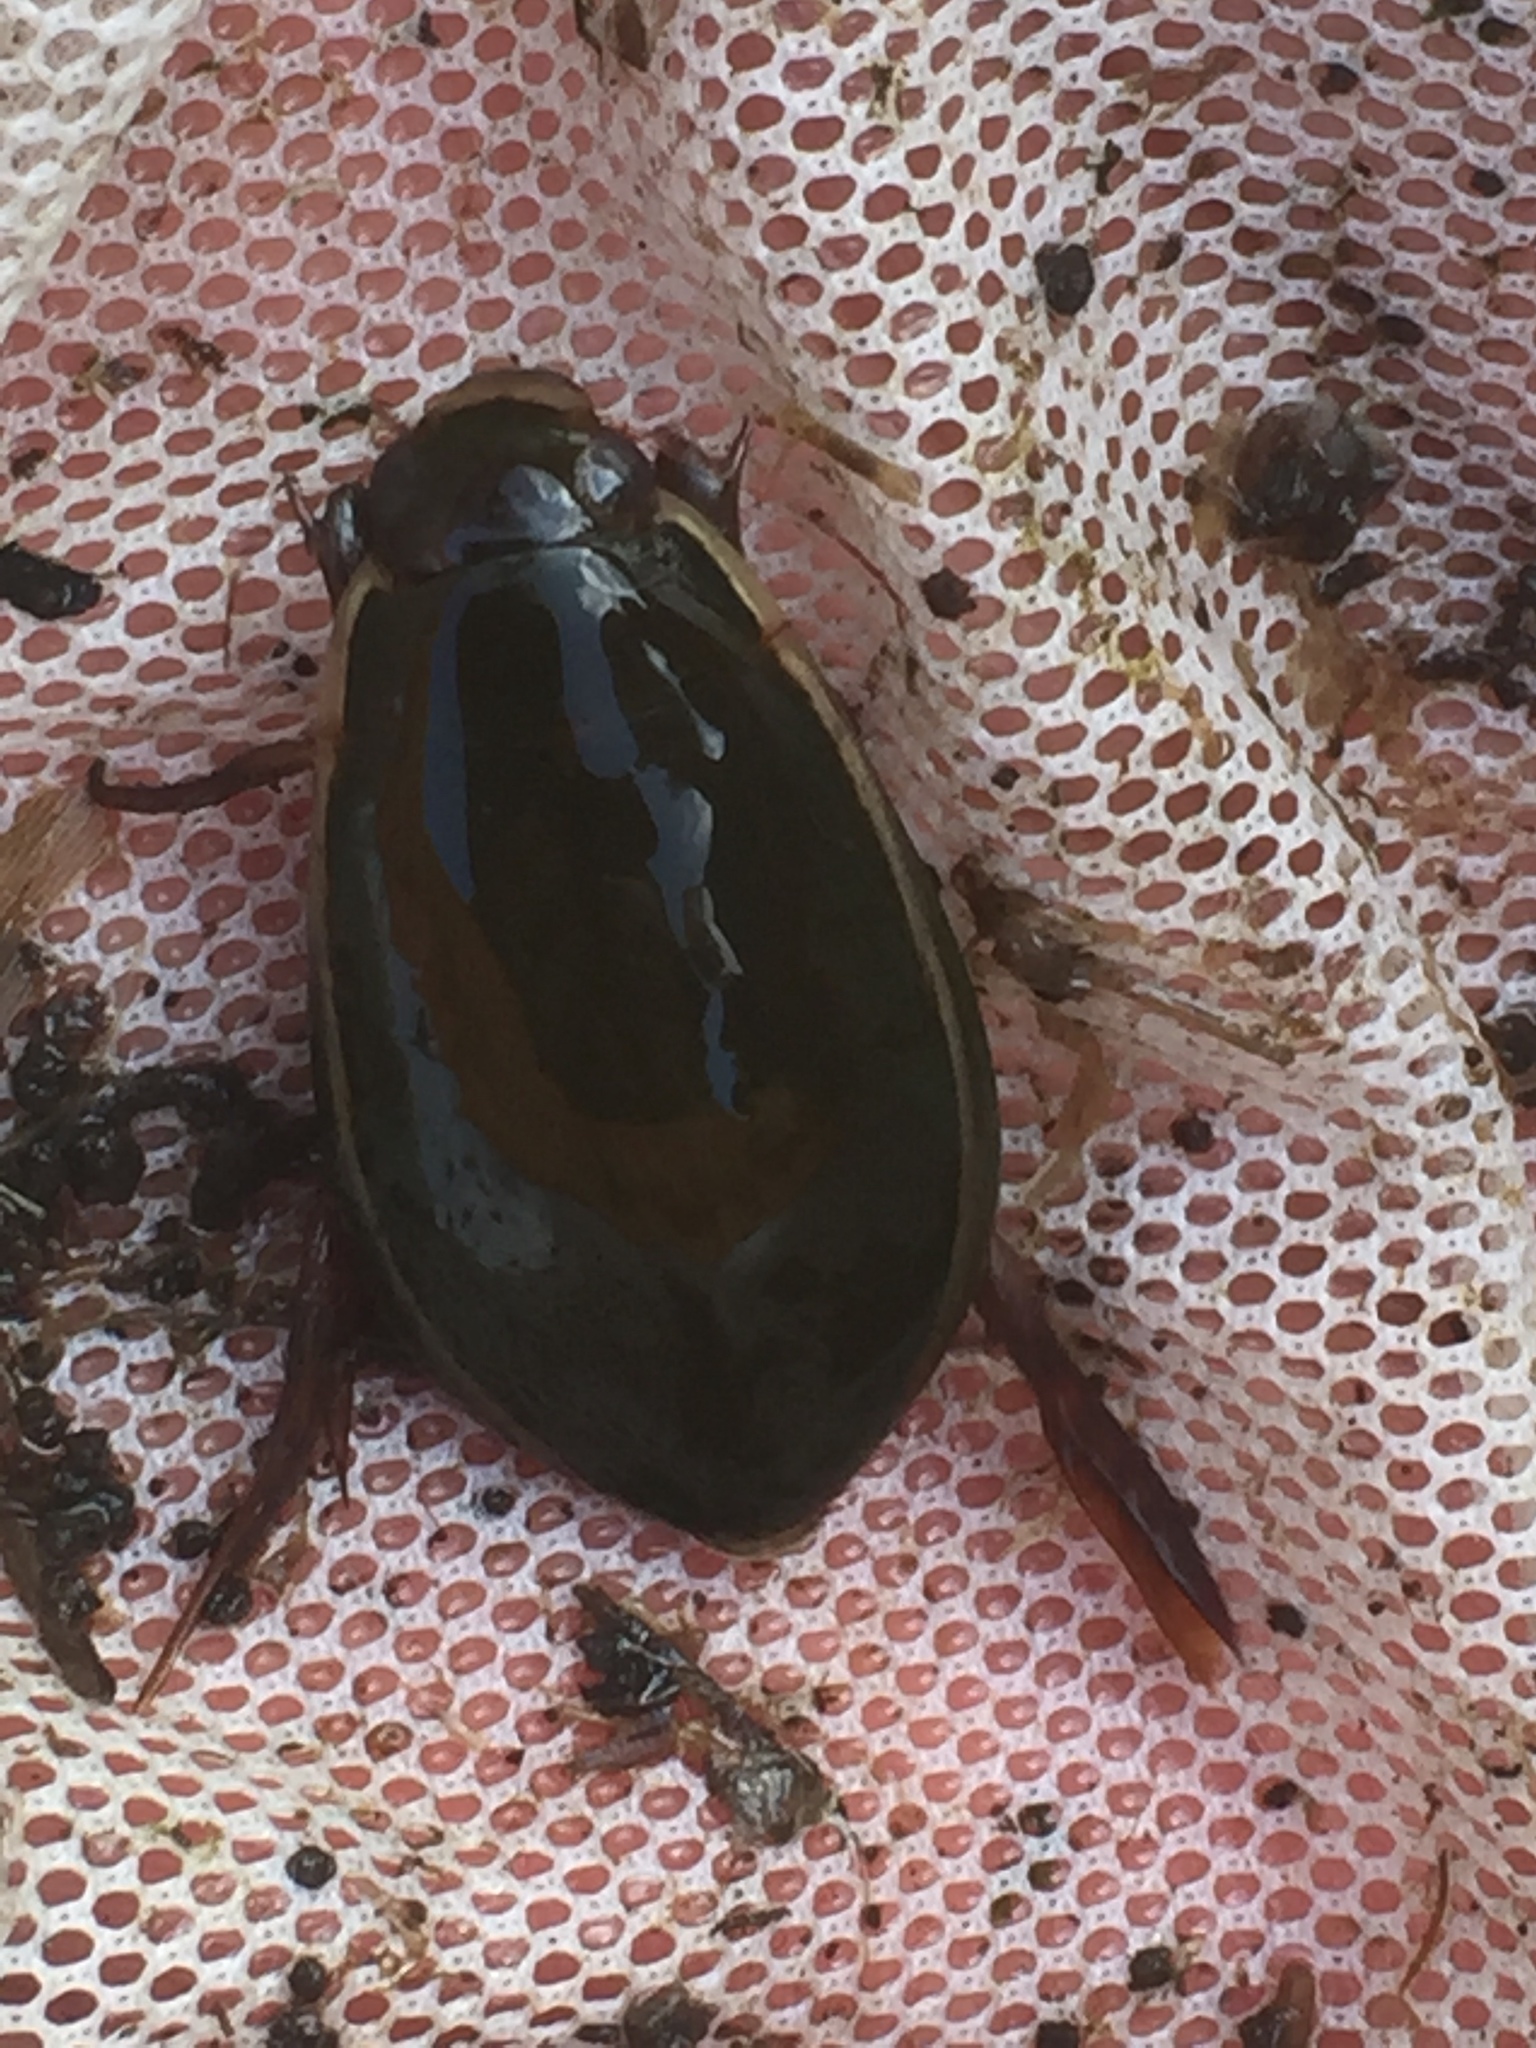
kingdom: Animalia
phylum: Arthropoda
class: Insecta
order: Coleoptera
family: Dytiscidae
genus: Cybister
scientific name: Cybister lateralimarginalis
